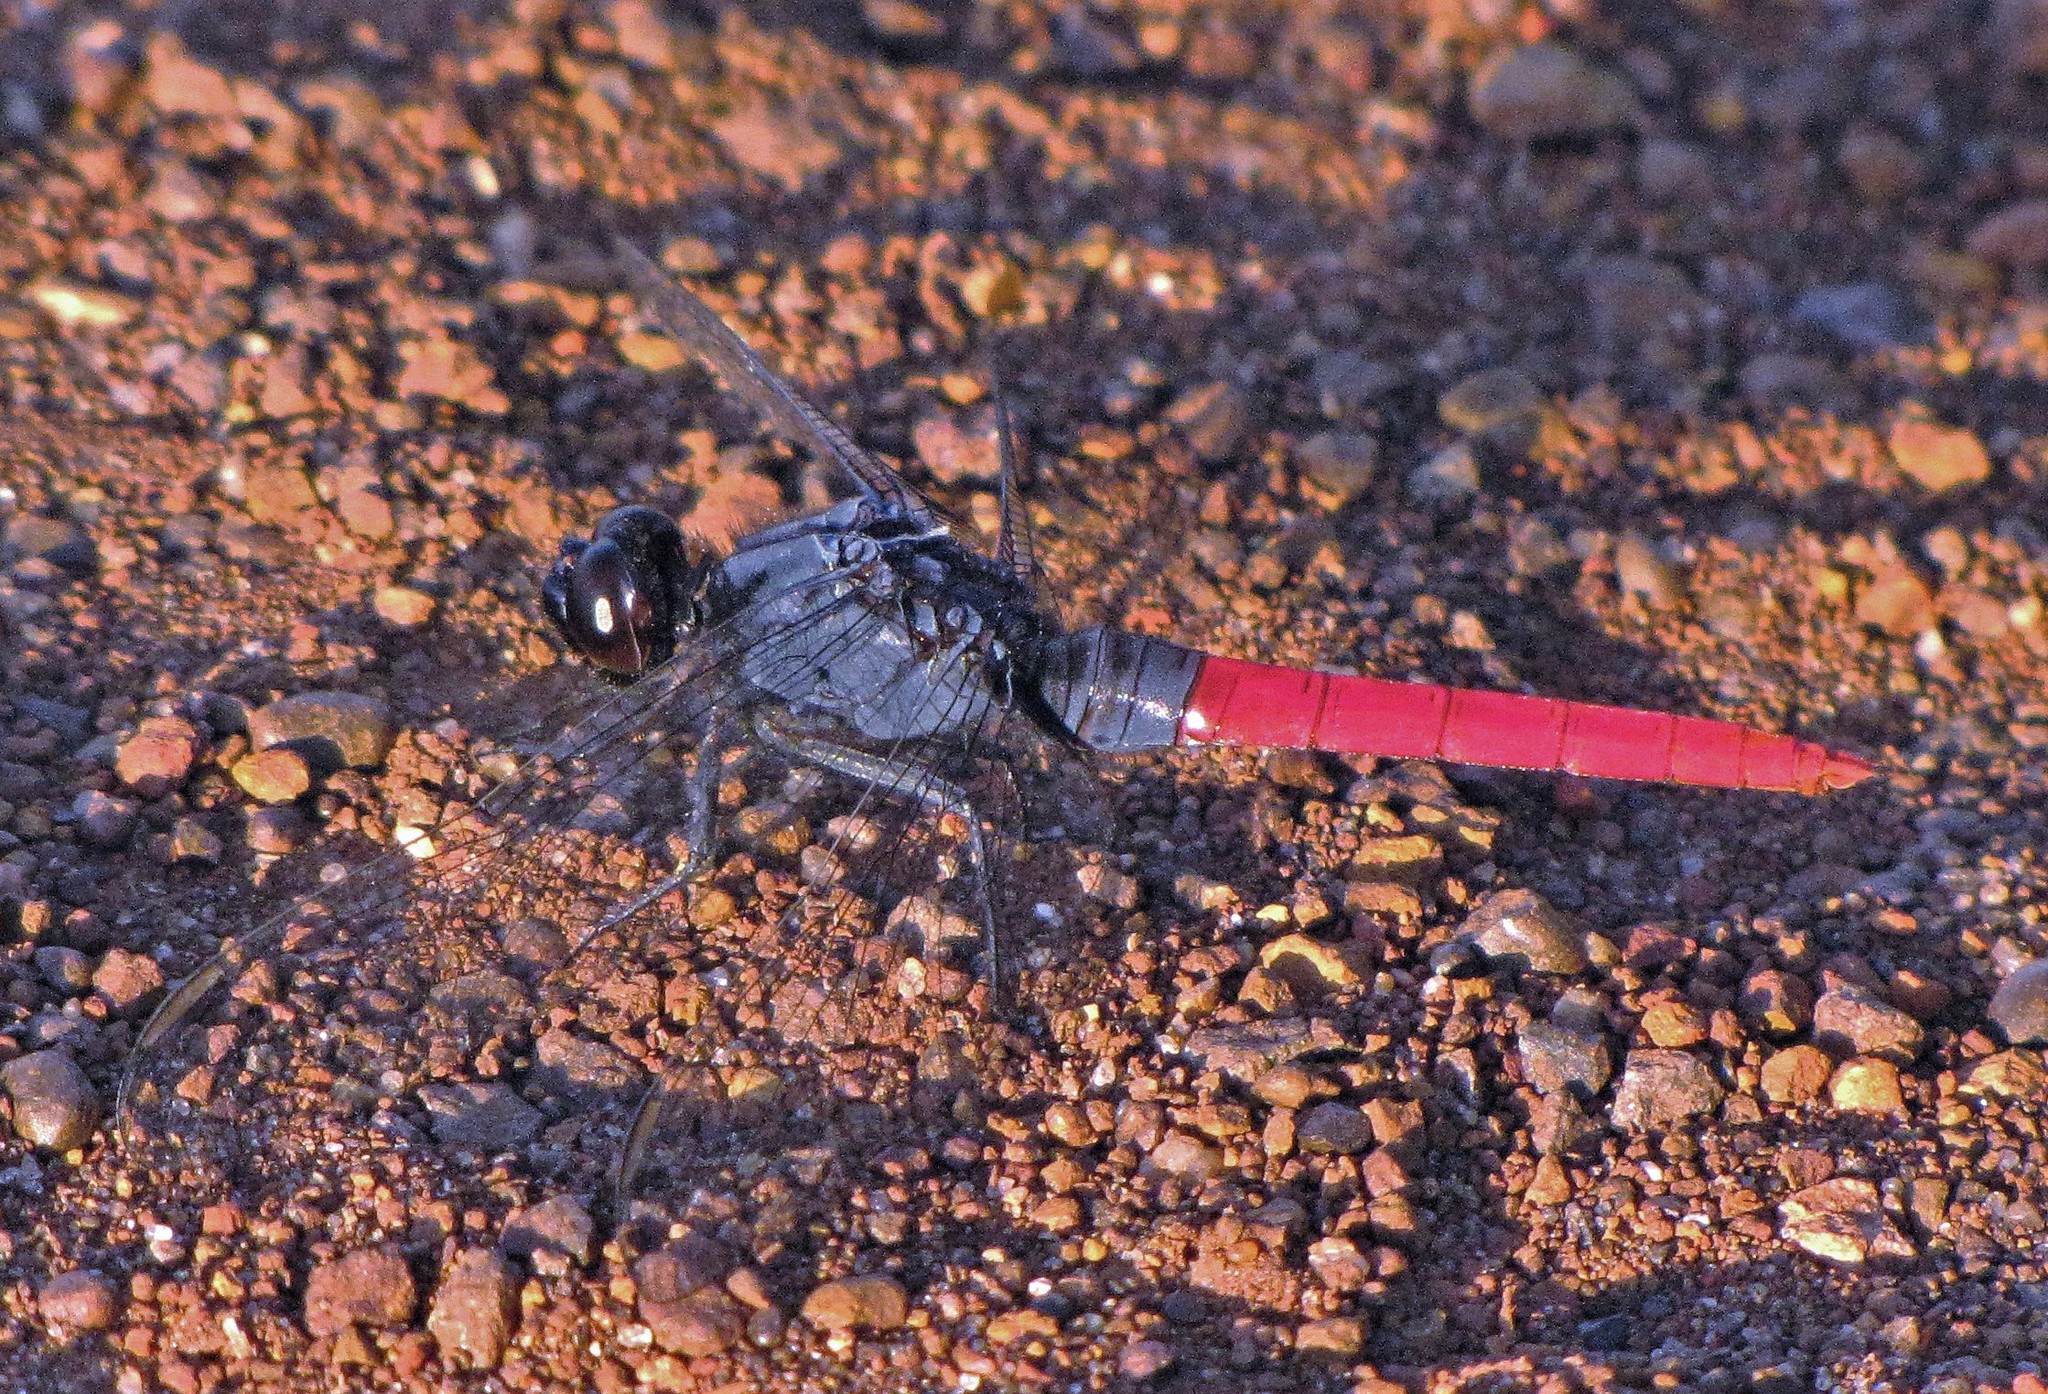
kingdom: Animalia
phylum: Arthropoda
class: Insecta
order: Odonata
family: Libellulidae
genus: Erythemis
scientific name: Erythemis peruviana
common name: Flame-tailed pondhawk
